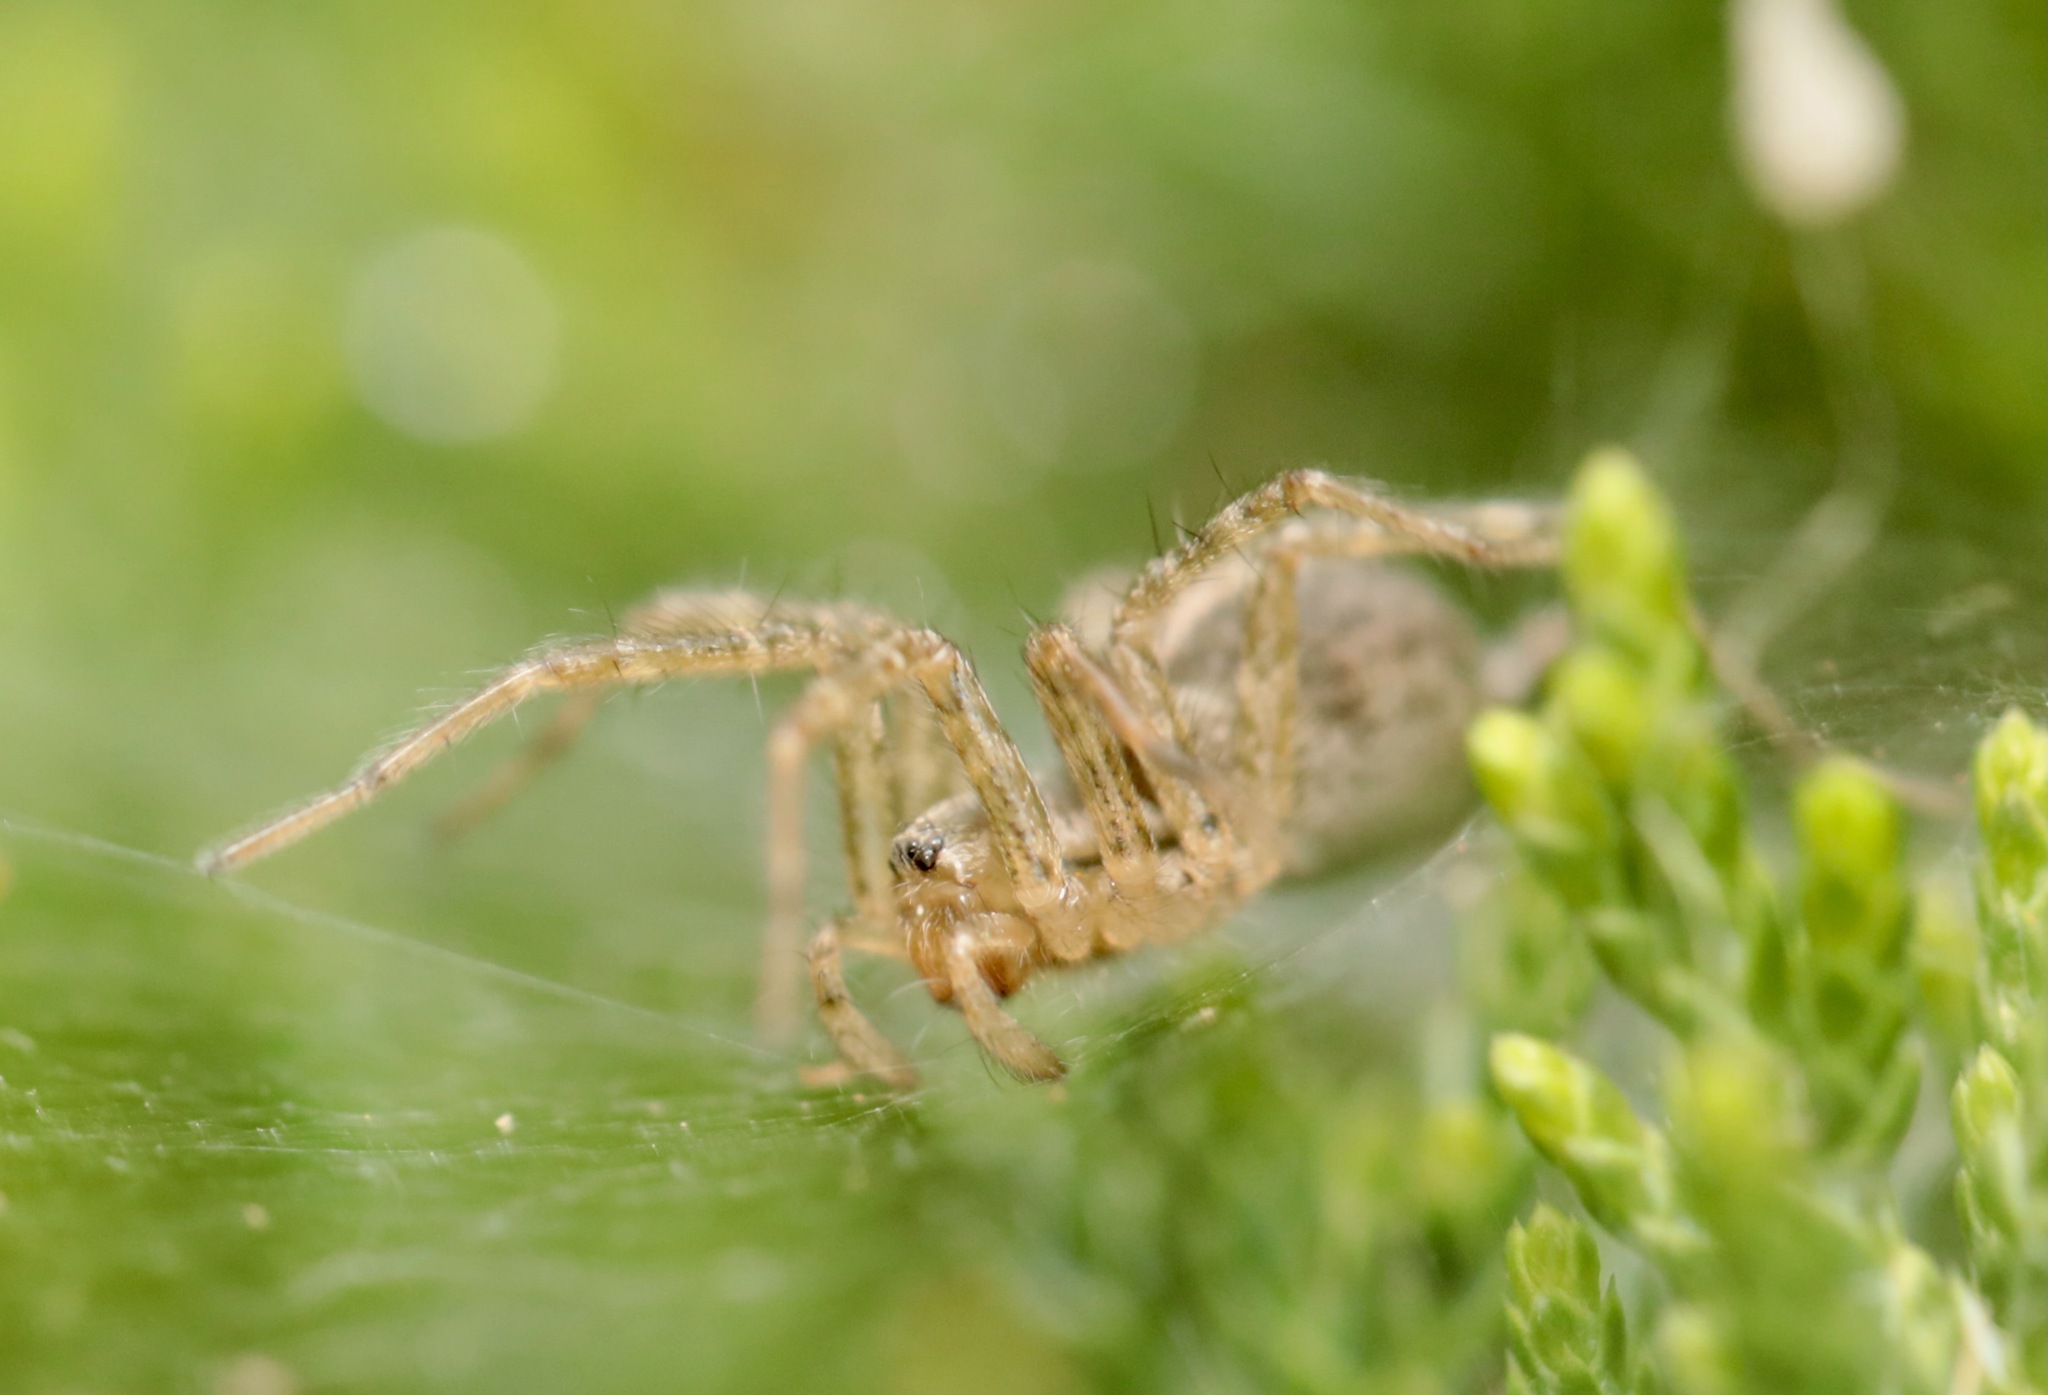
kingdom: Animalia
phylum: Arthropoda
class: Arachnida
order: Araneae
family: Agelenidae
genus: Agelenopsis
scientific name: Agelenopsis
